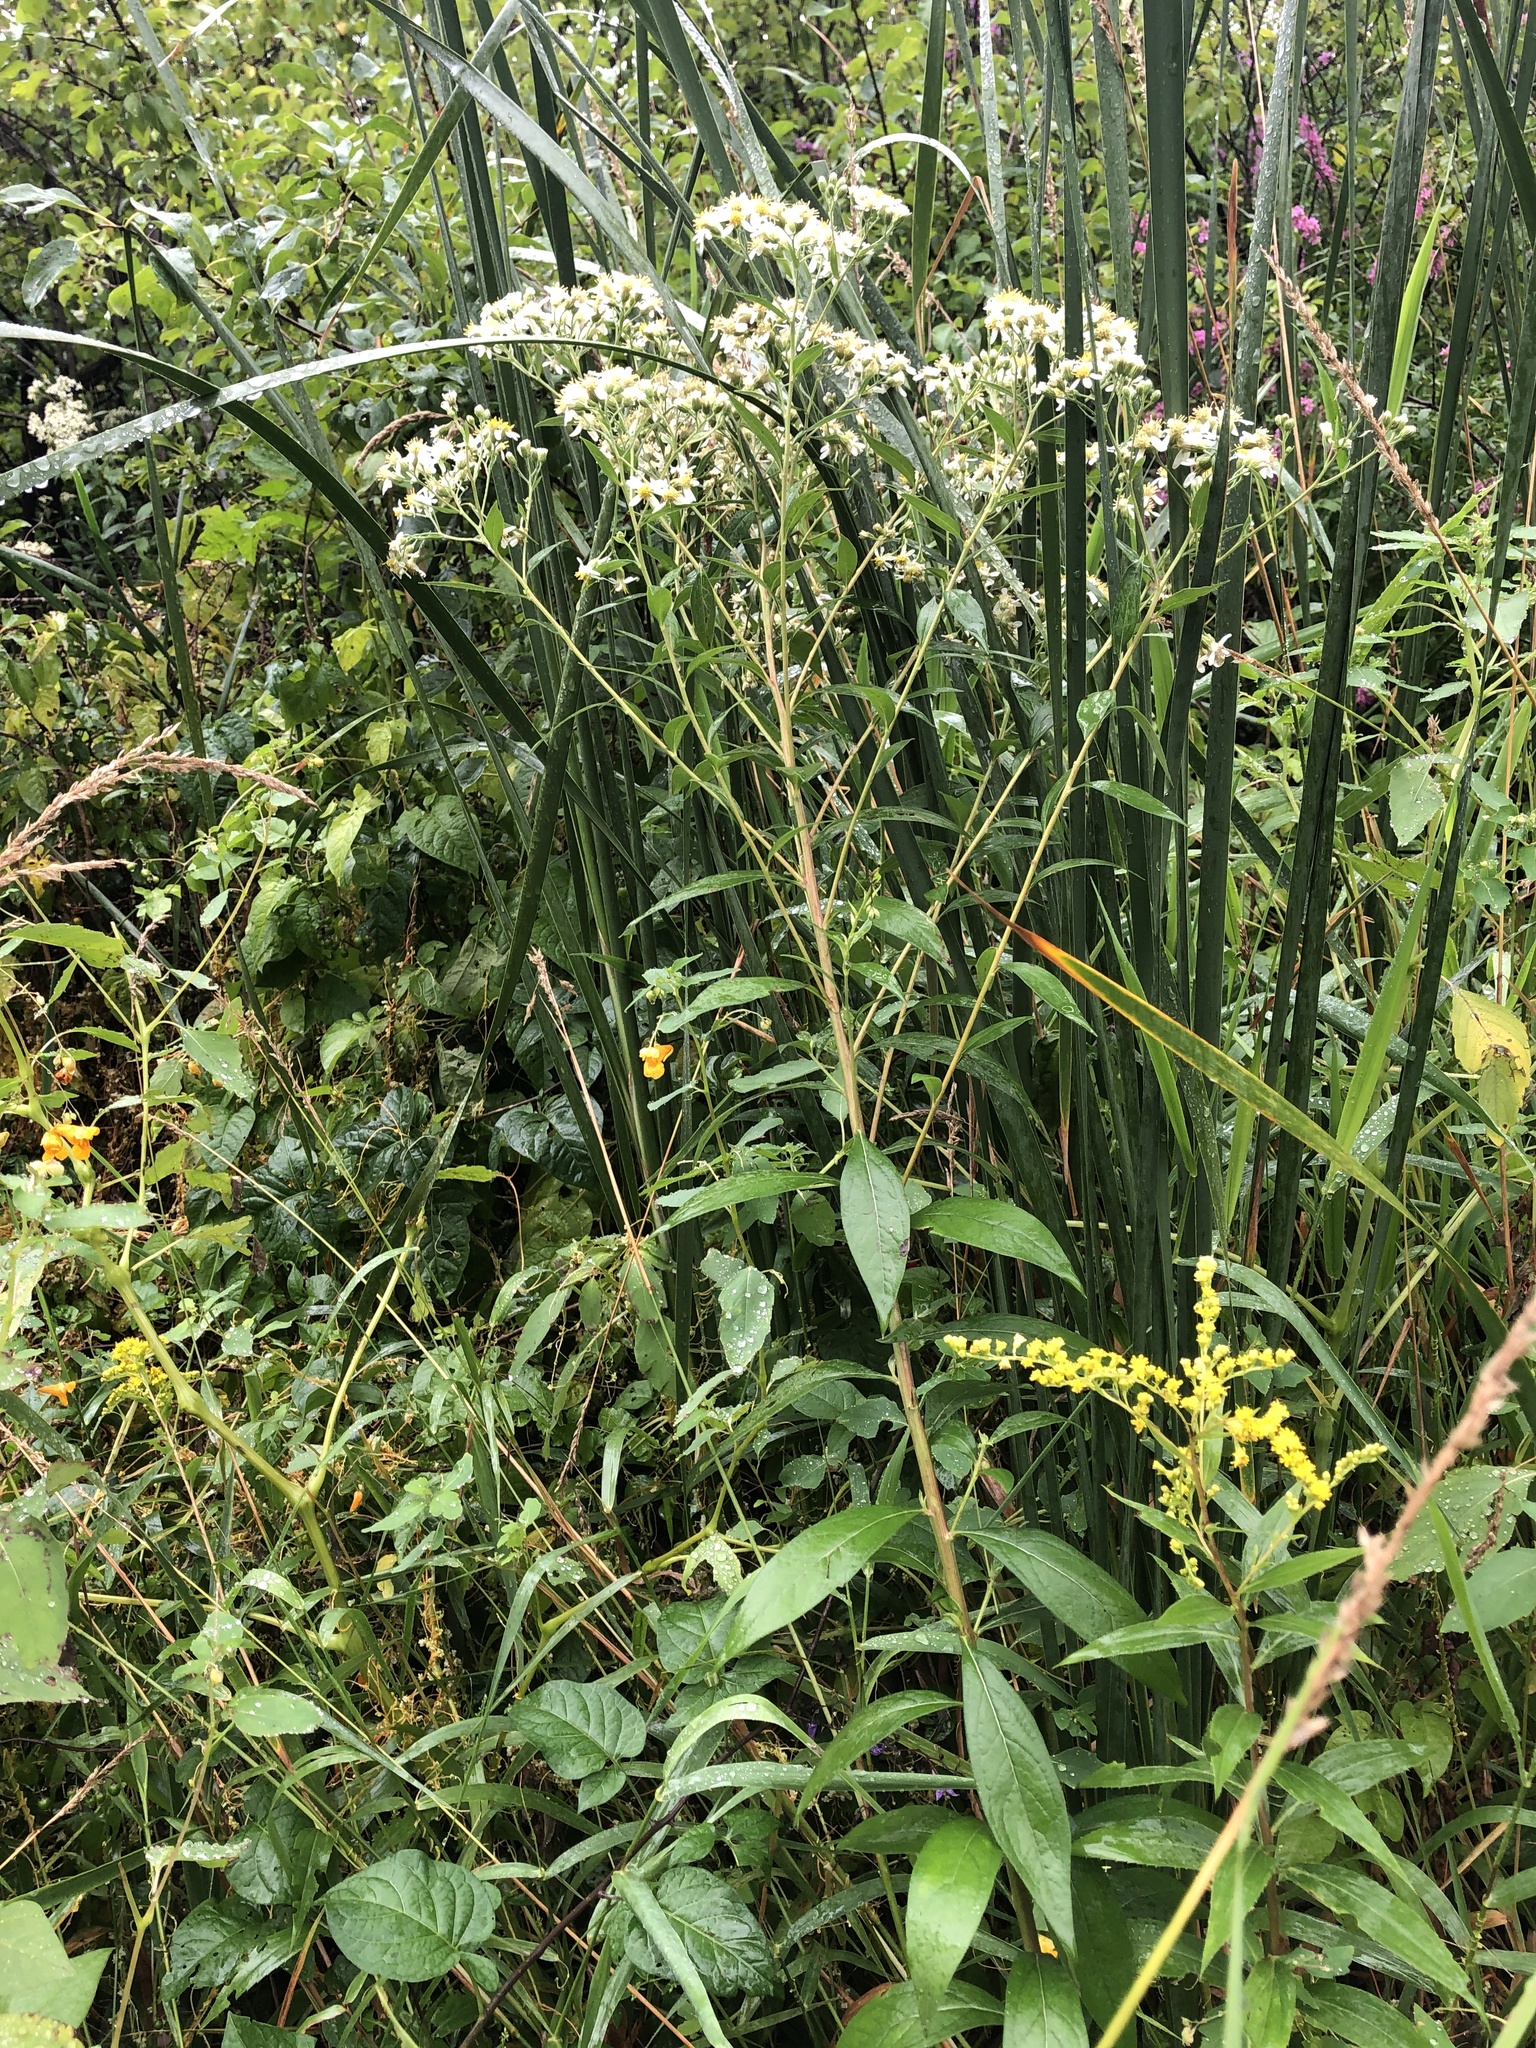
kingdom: Plantae
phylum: Tracheophyta
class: Magnoliopsida
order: Asterales
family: Asteraceae
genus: Doellingeria
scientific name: Doellingeria umbellata
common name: Flat-top white aster
